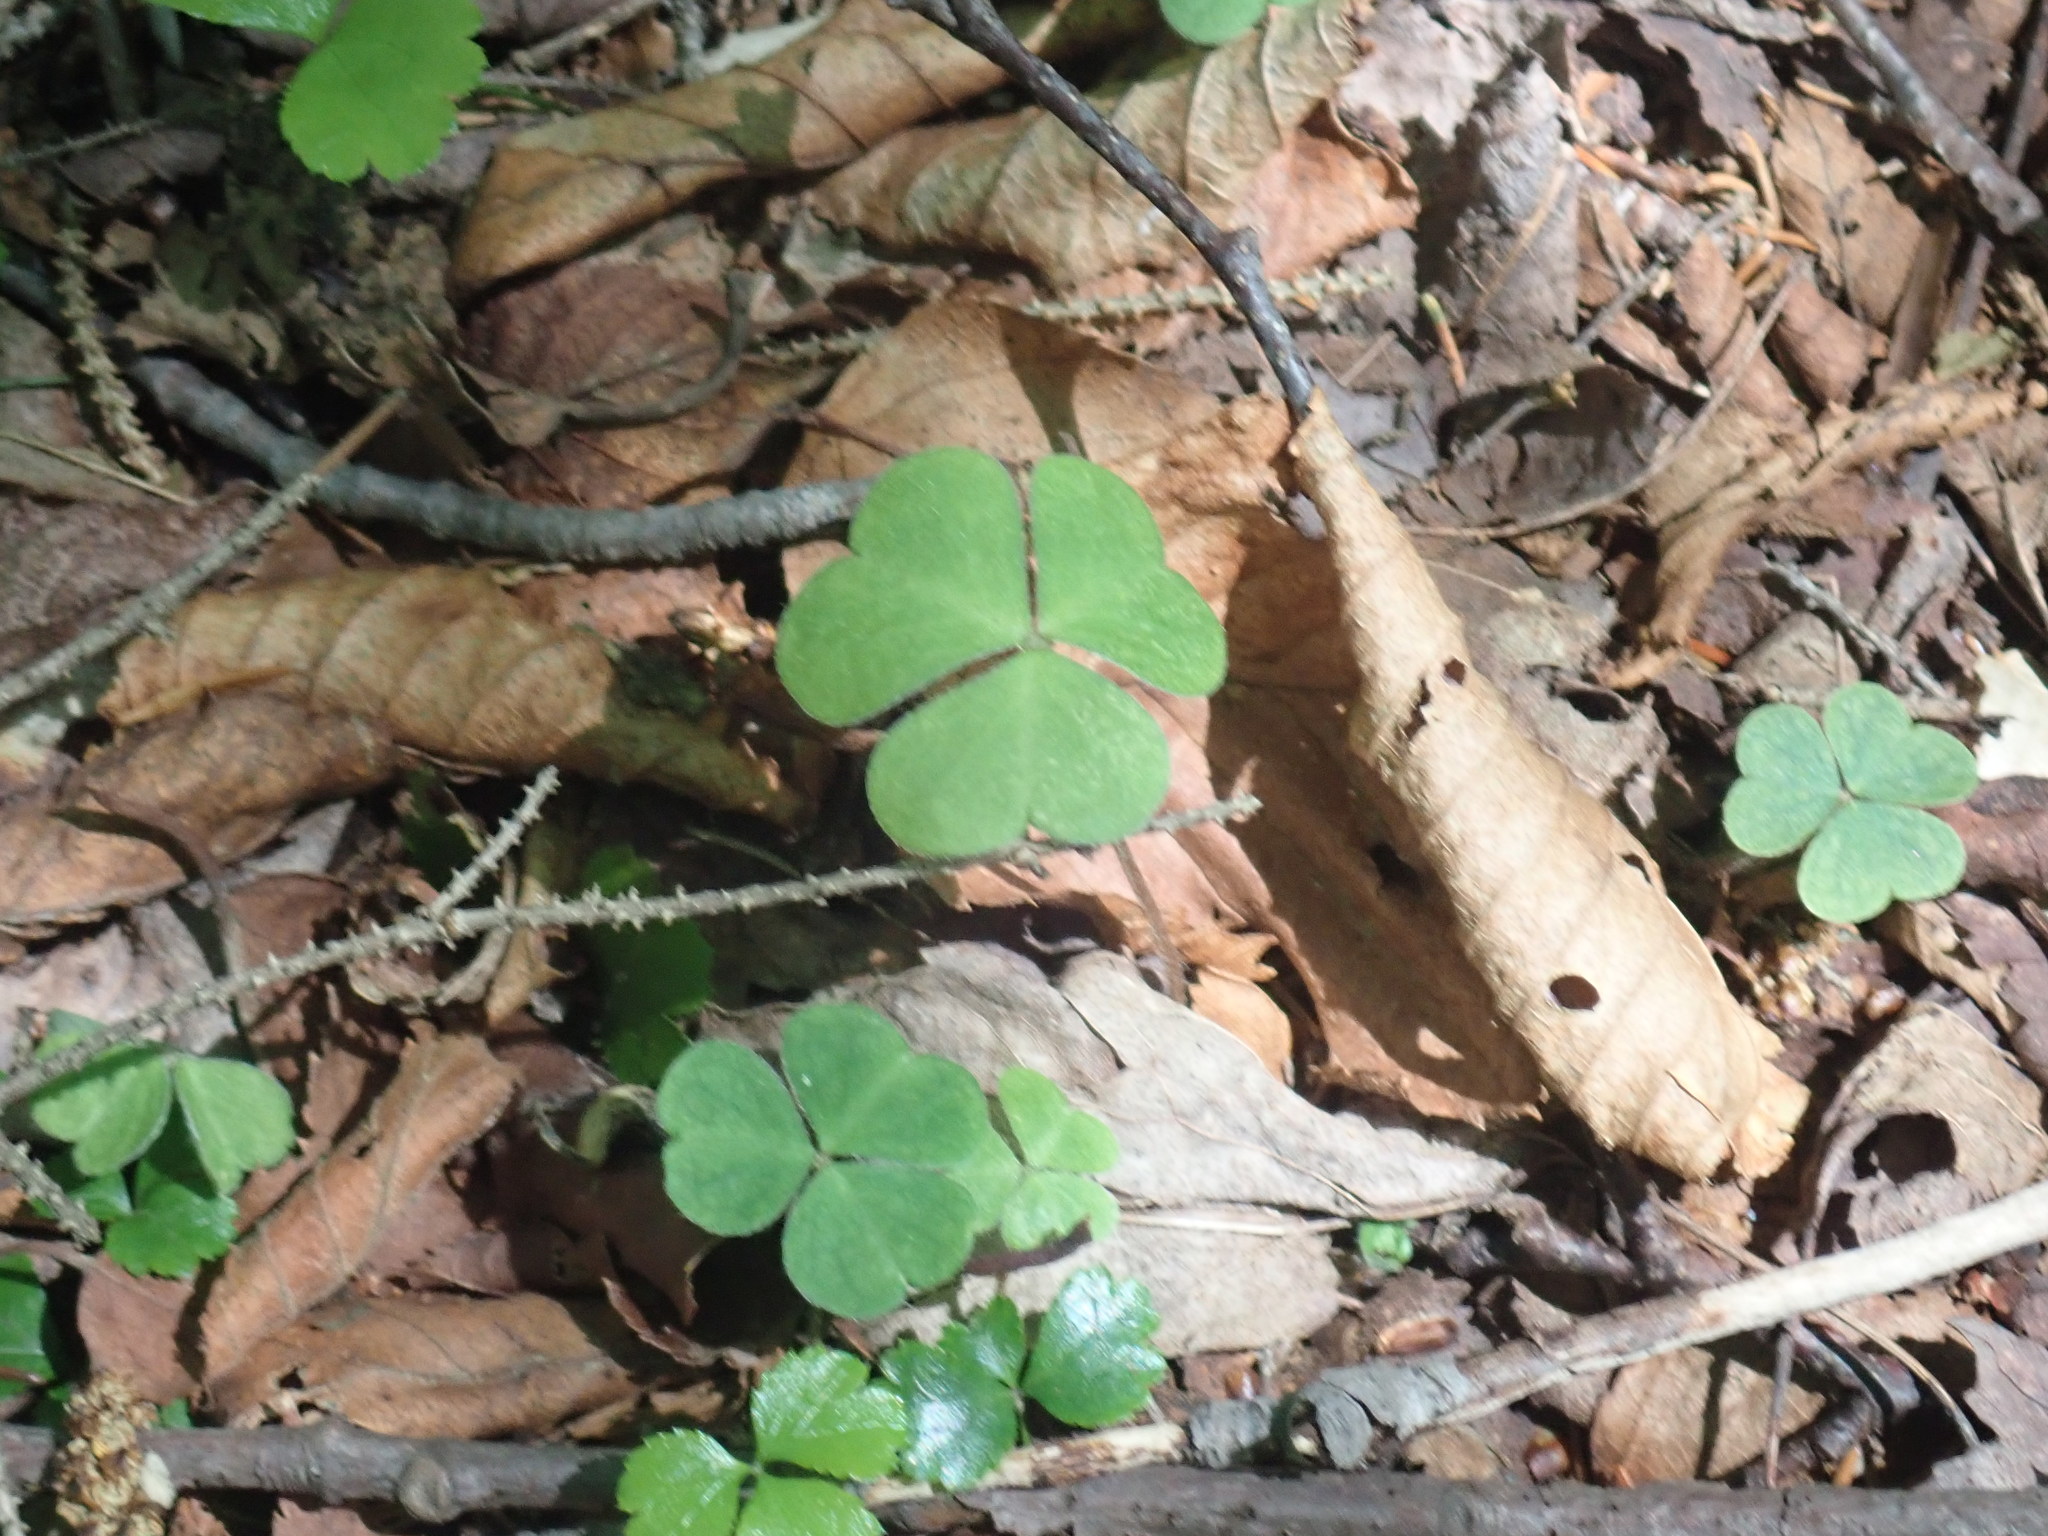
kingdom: Plantae
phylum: Tracheophyta
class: Magnoliopsida
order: Oxalidales
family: Oxalidaceae
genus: Oxalis
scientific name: Oxalis montana
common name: American wood-sorrel
